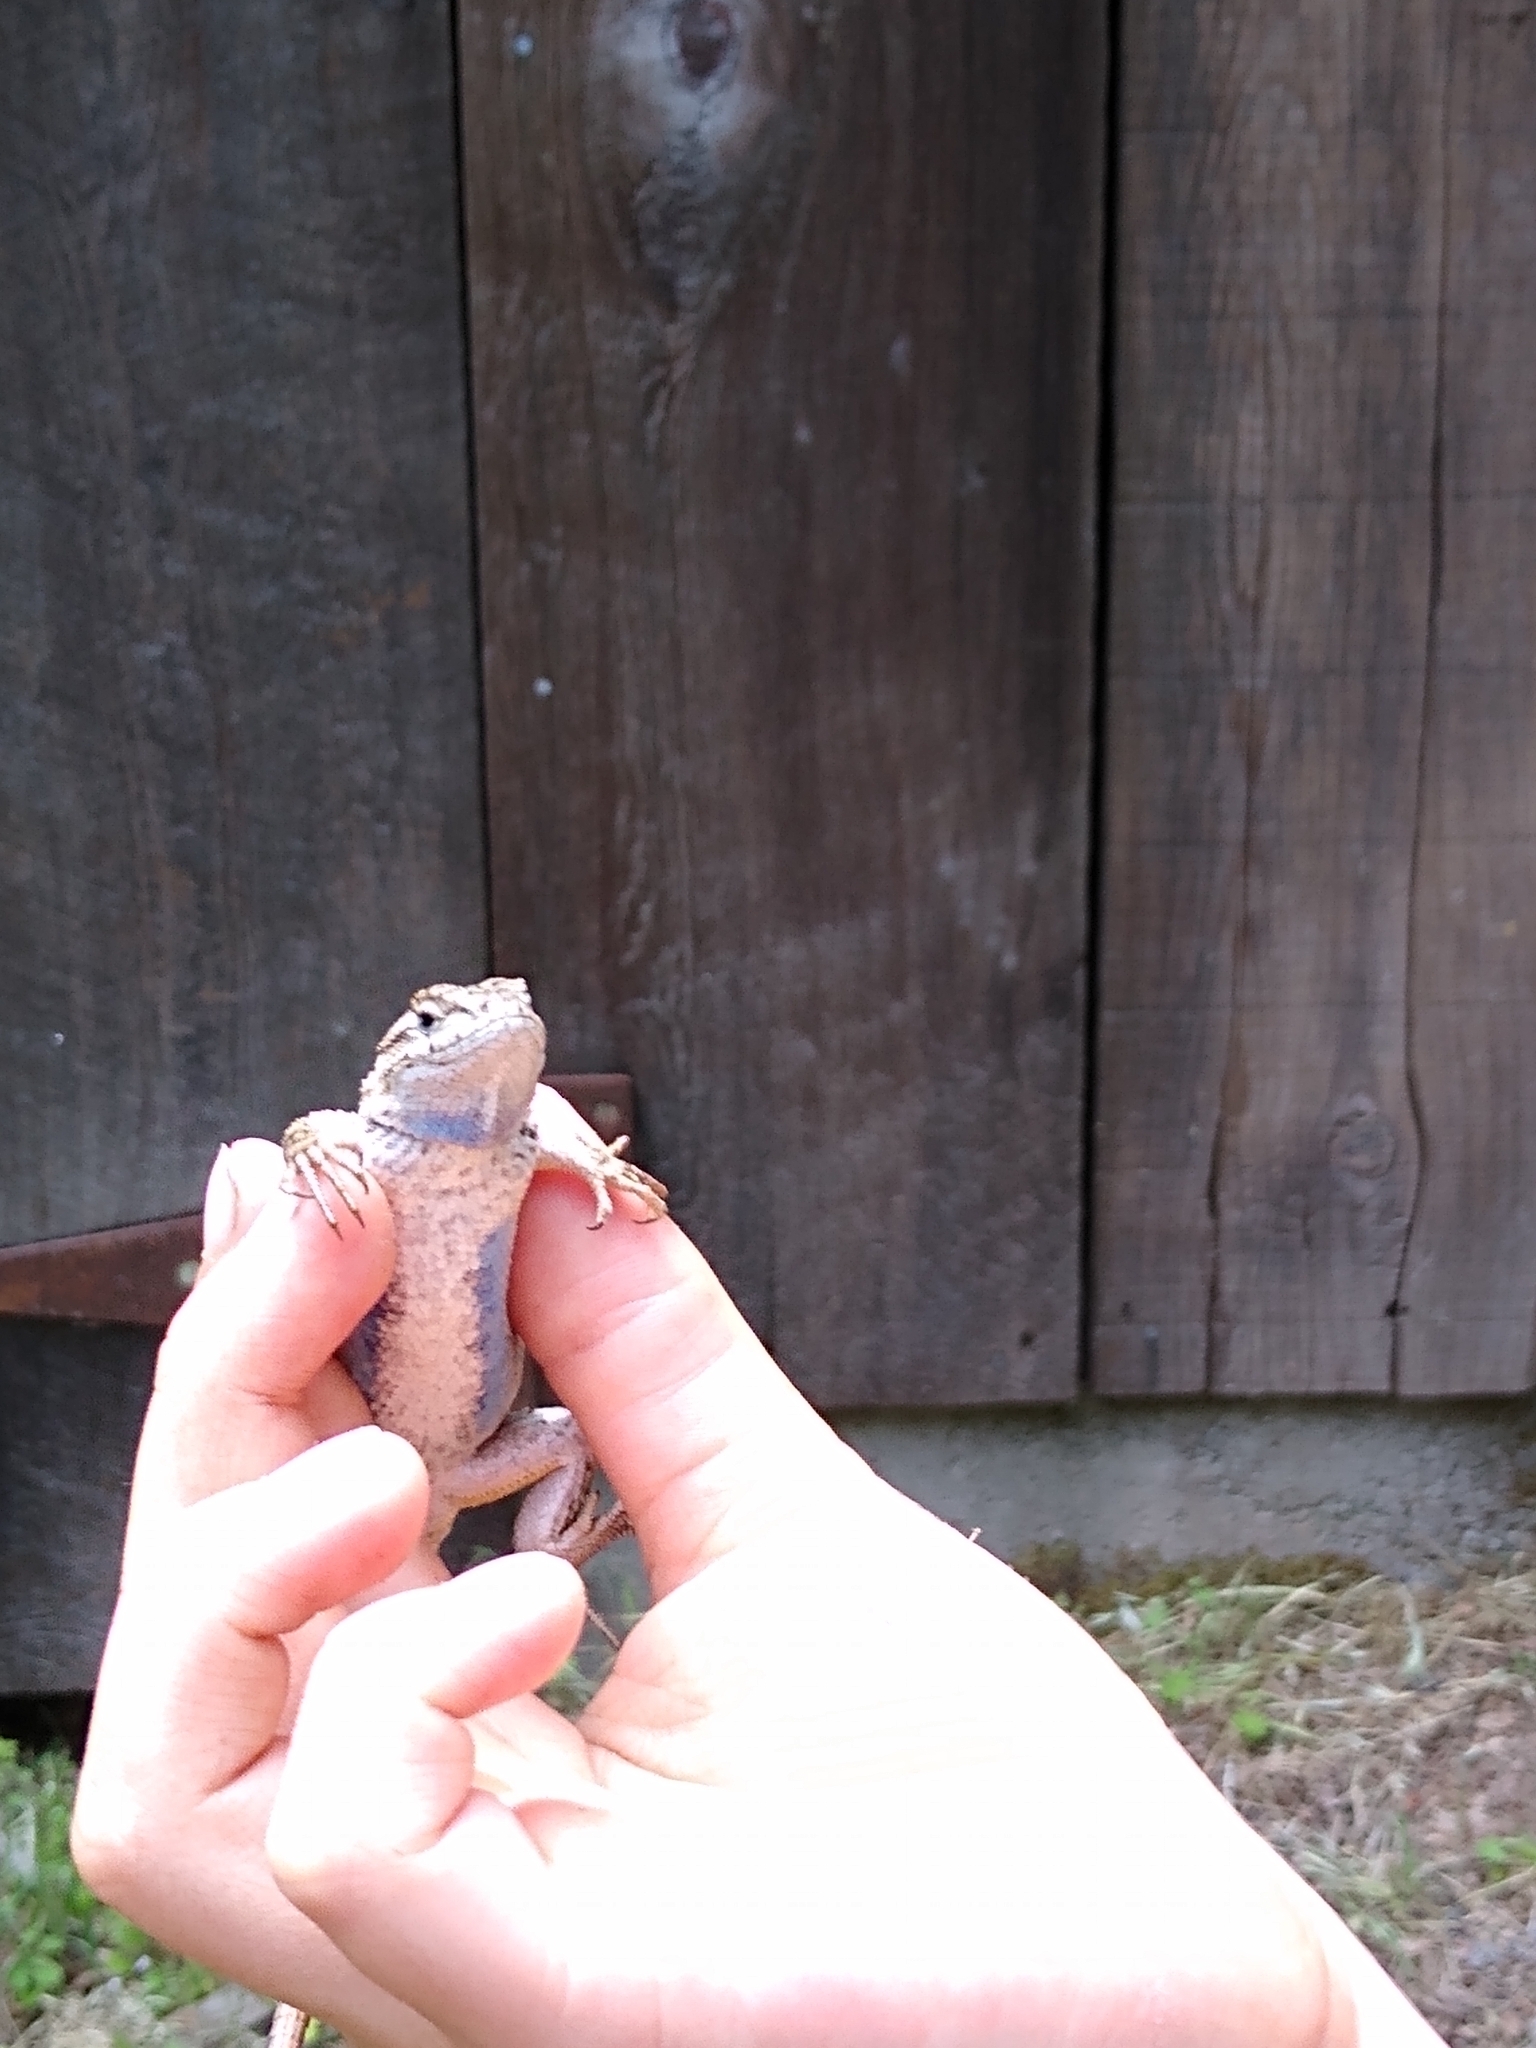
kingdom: Animalia
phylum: Chordata
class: Squamata
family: Phrynosomatidae
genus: Sceloporus
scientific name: Sceloporus occidentalis
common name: Western fence lizard
